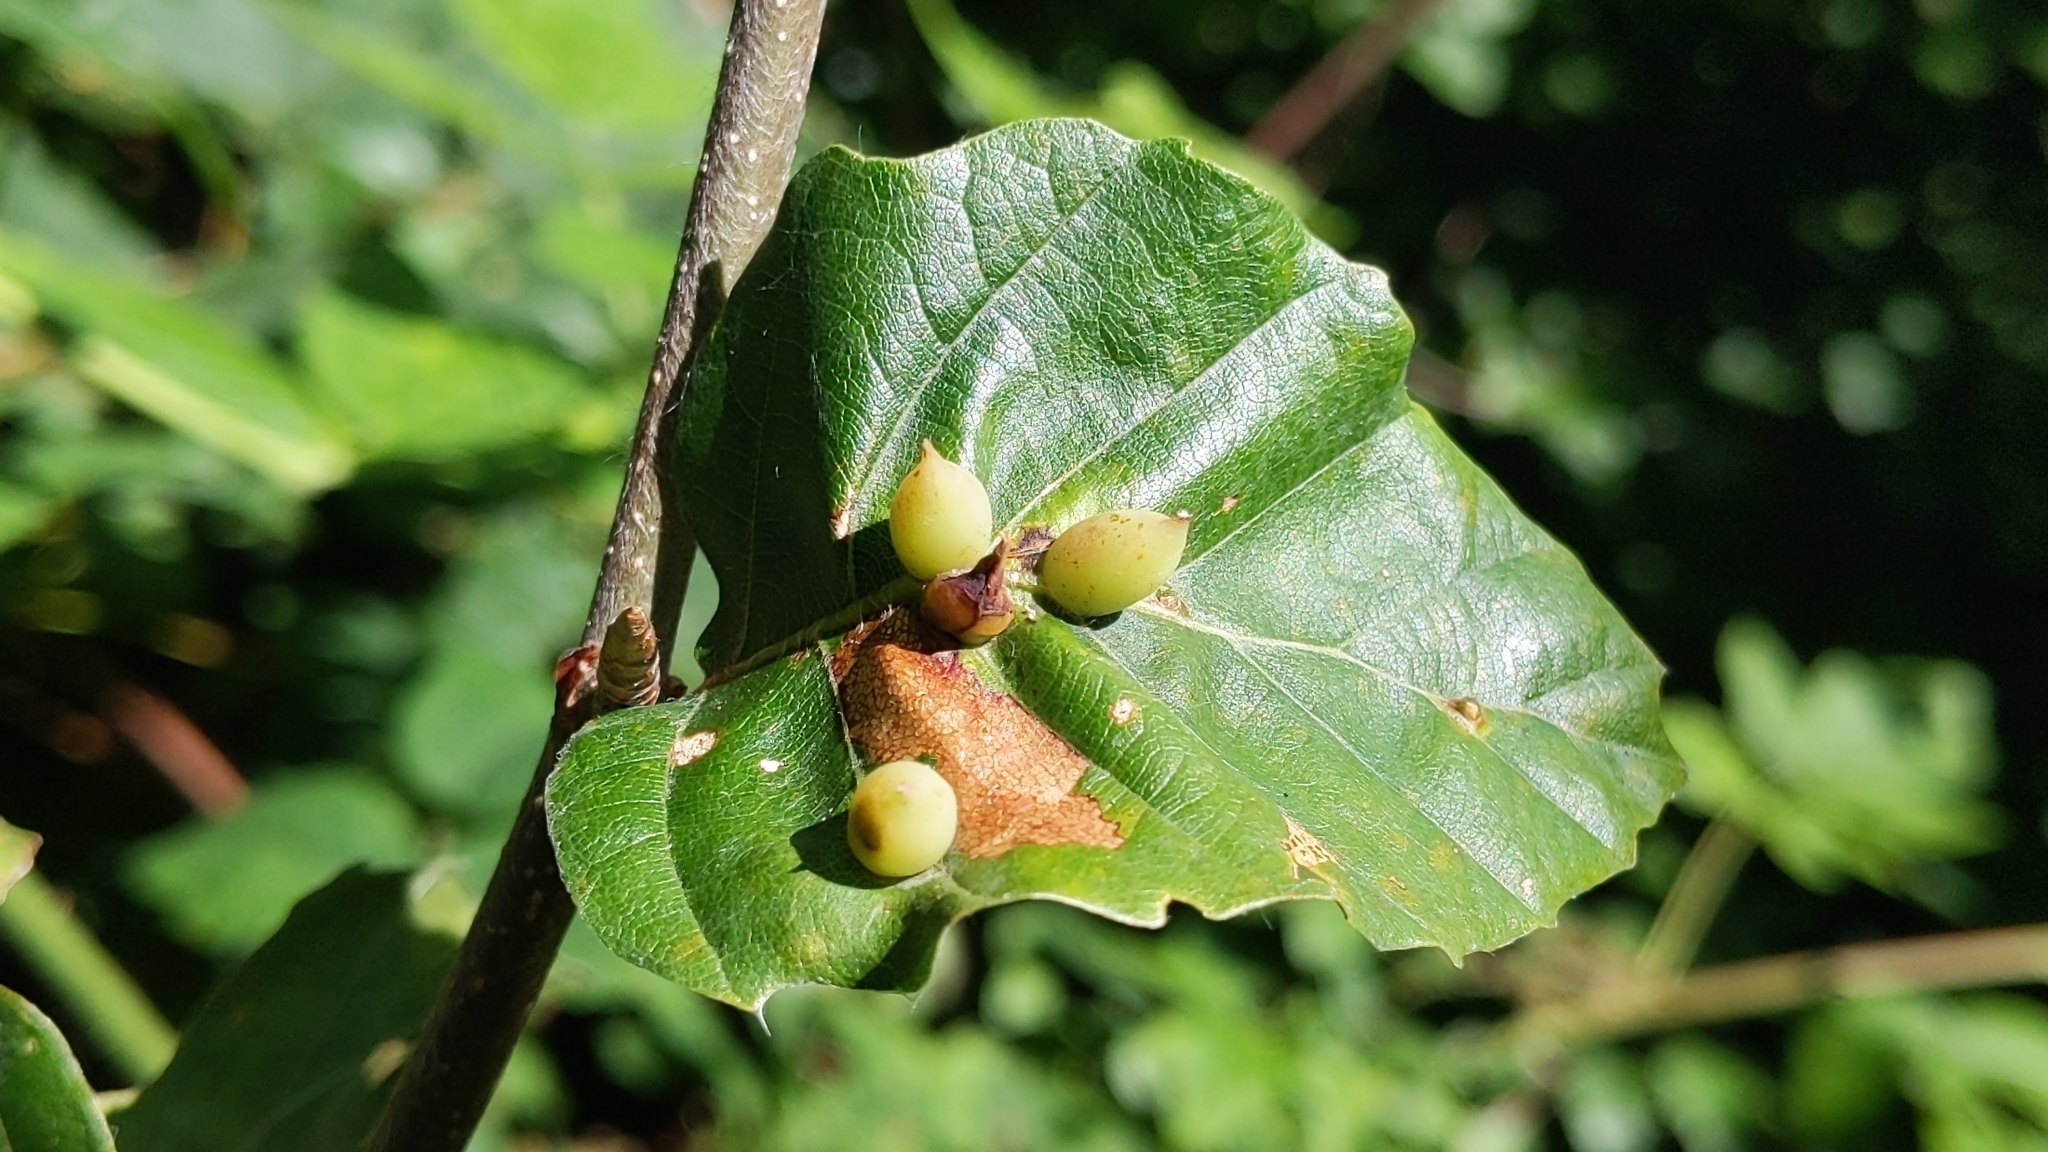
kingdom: Animalia
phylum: Arthropoda
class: Insecta
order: Diptera
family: Cecidomyiidae
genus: Mikiola
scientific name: Mikiola fagi
